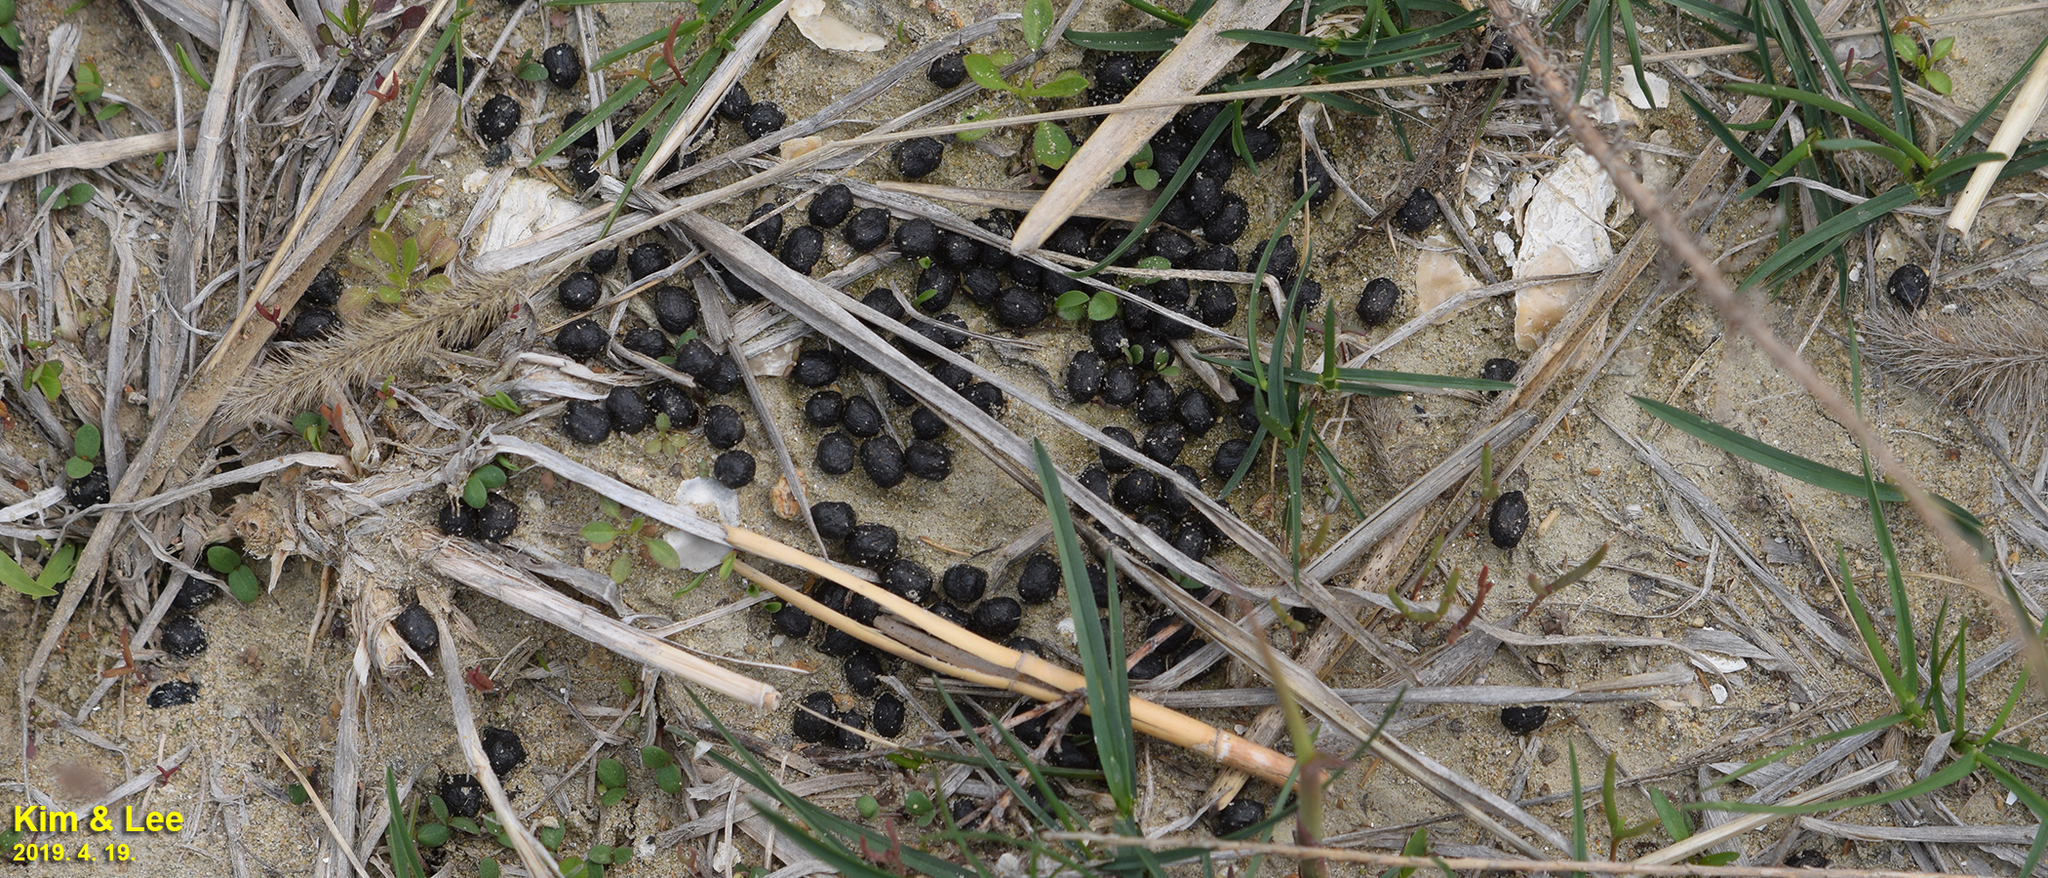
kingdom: Animalia
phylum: Chordata
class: Mammalia
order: Artiodactyla
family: Cervidae
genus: Hydropotes
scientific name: Hydropotes inermis
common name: Chinese water deer
